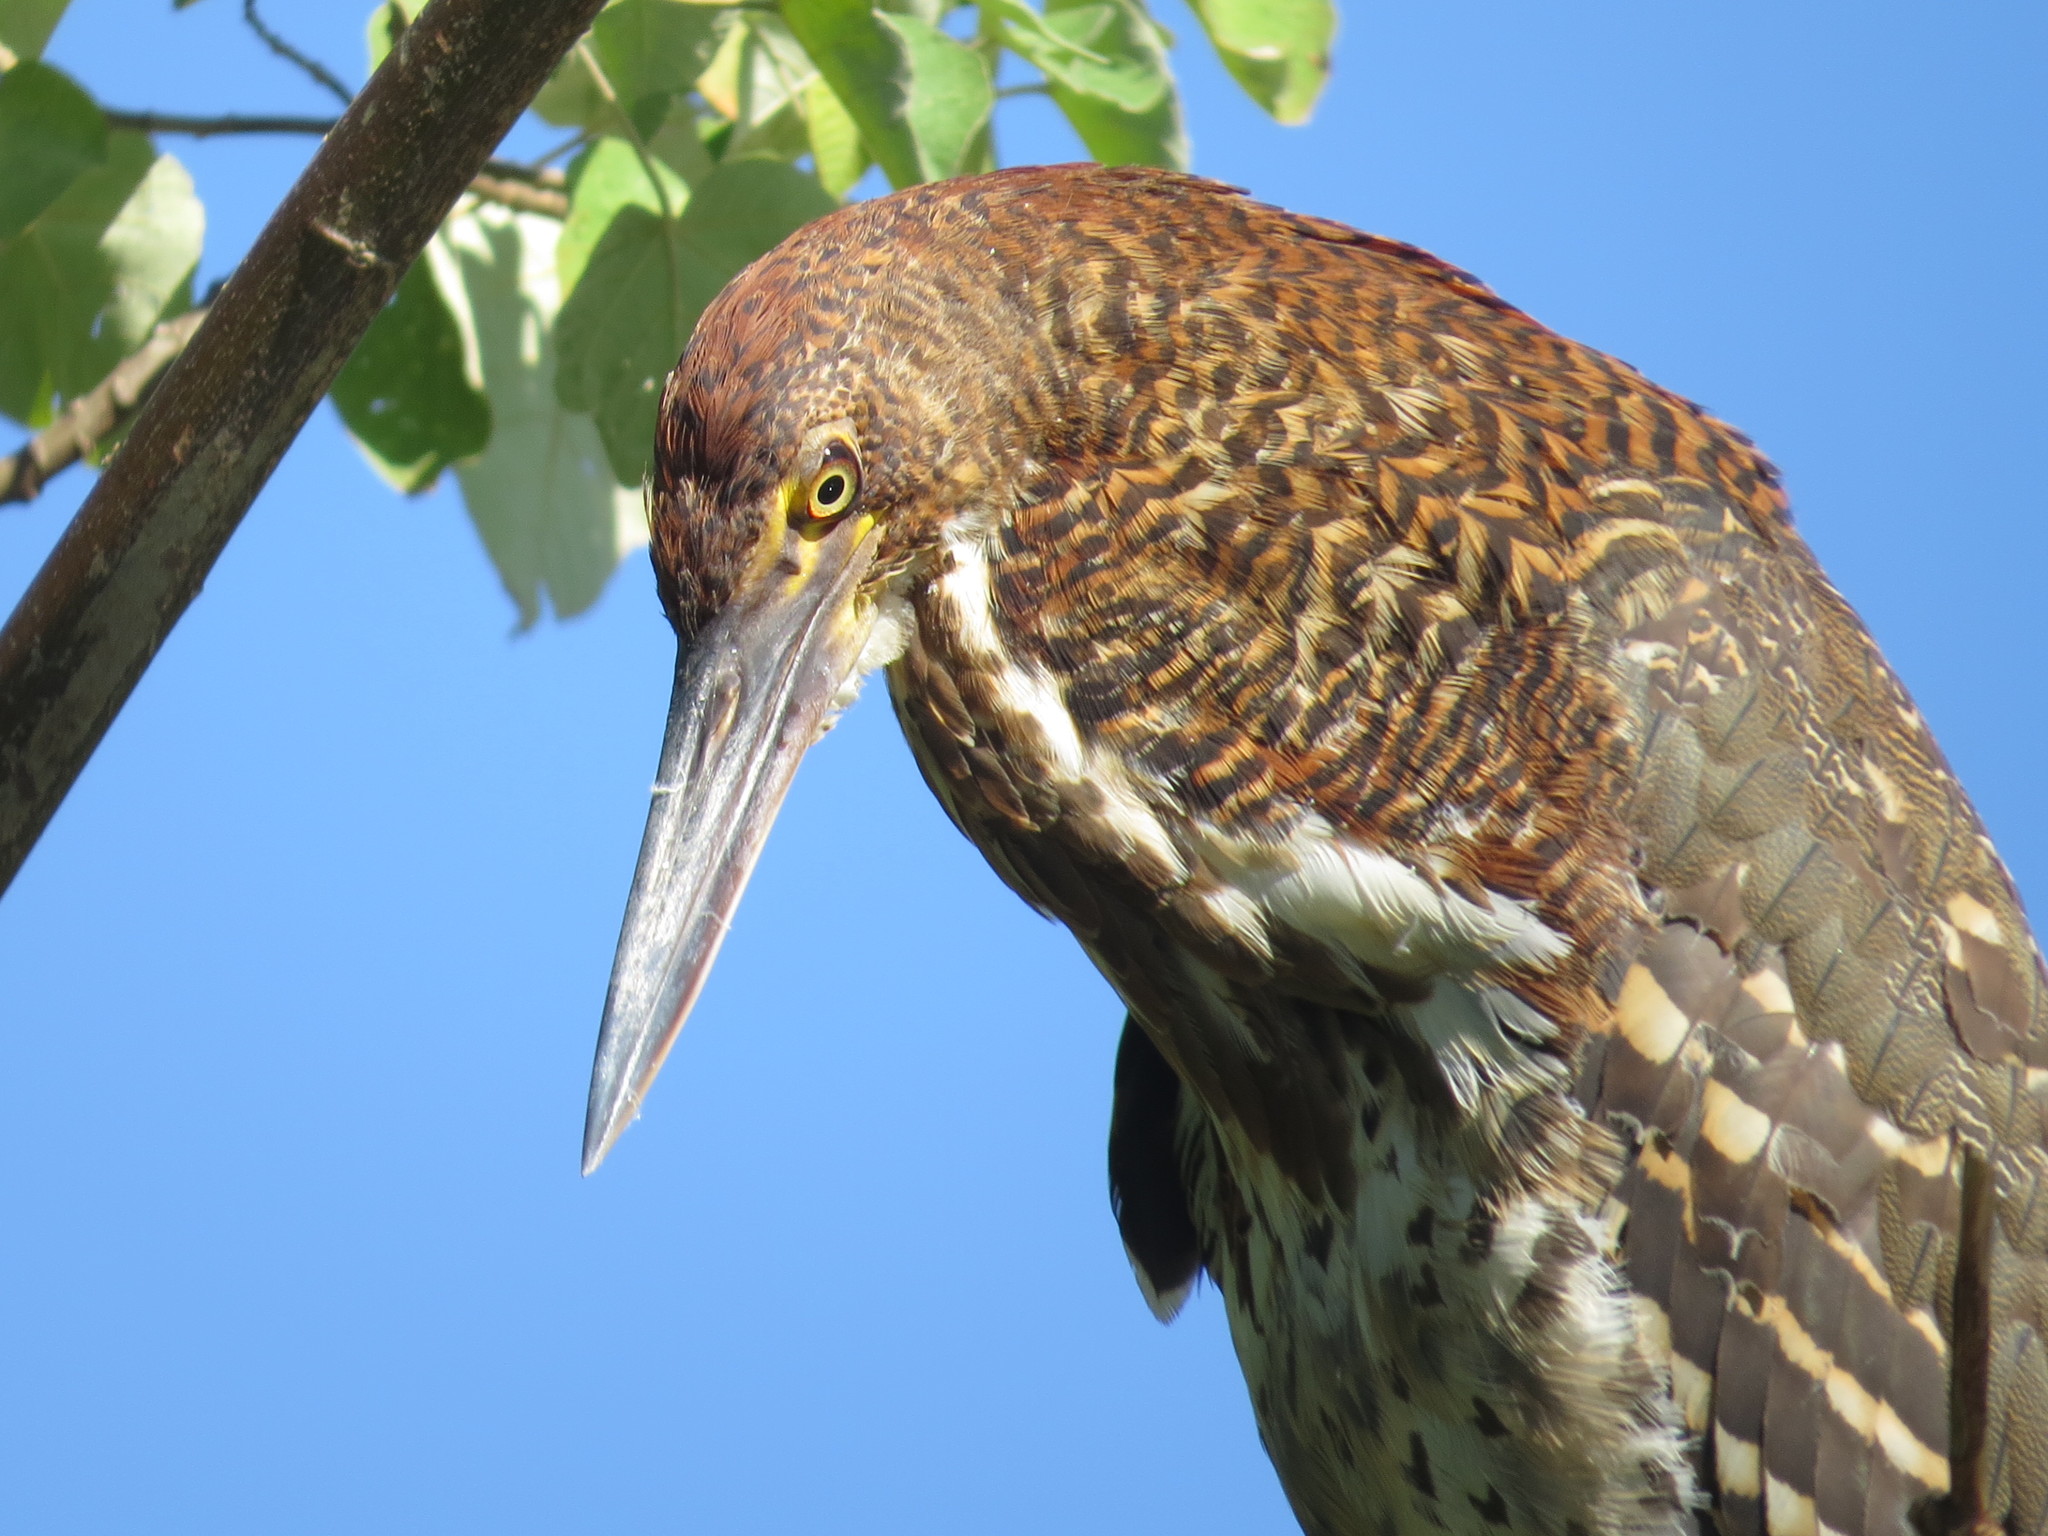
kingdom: Animalia
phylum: Chordata
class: Aves
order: Pelecaniformes
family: Ardeidae
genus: Tigrisoma
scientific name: Tigrisoma lineatum
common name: Rufescent tiger-heron
